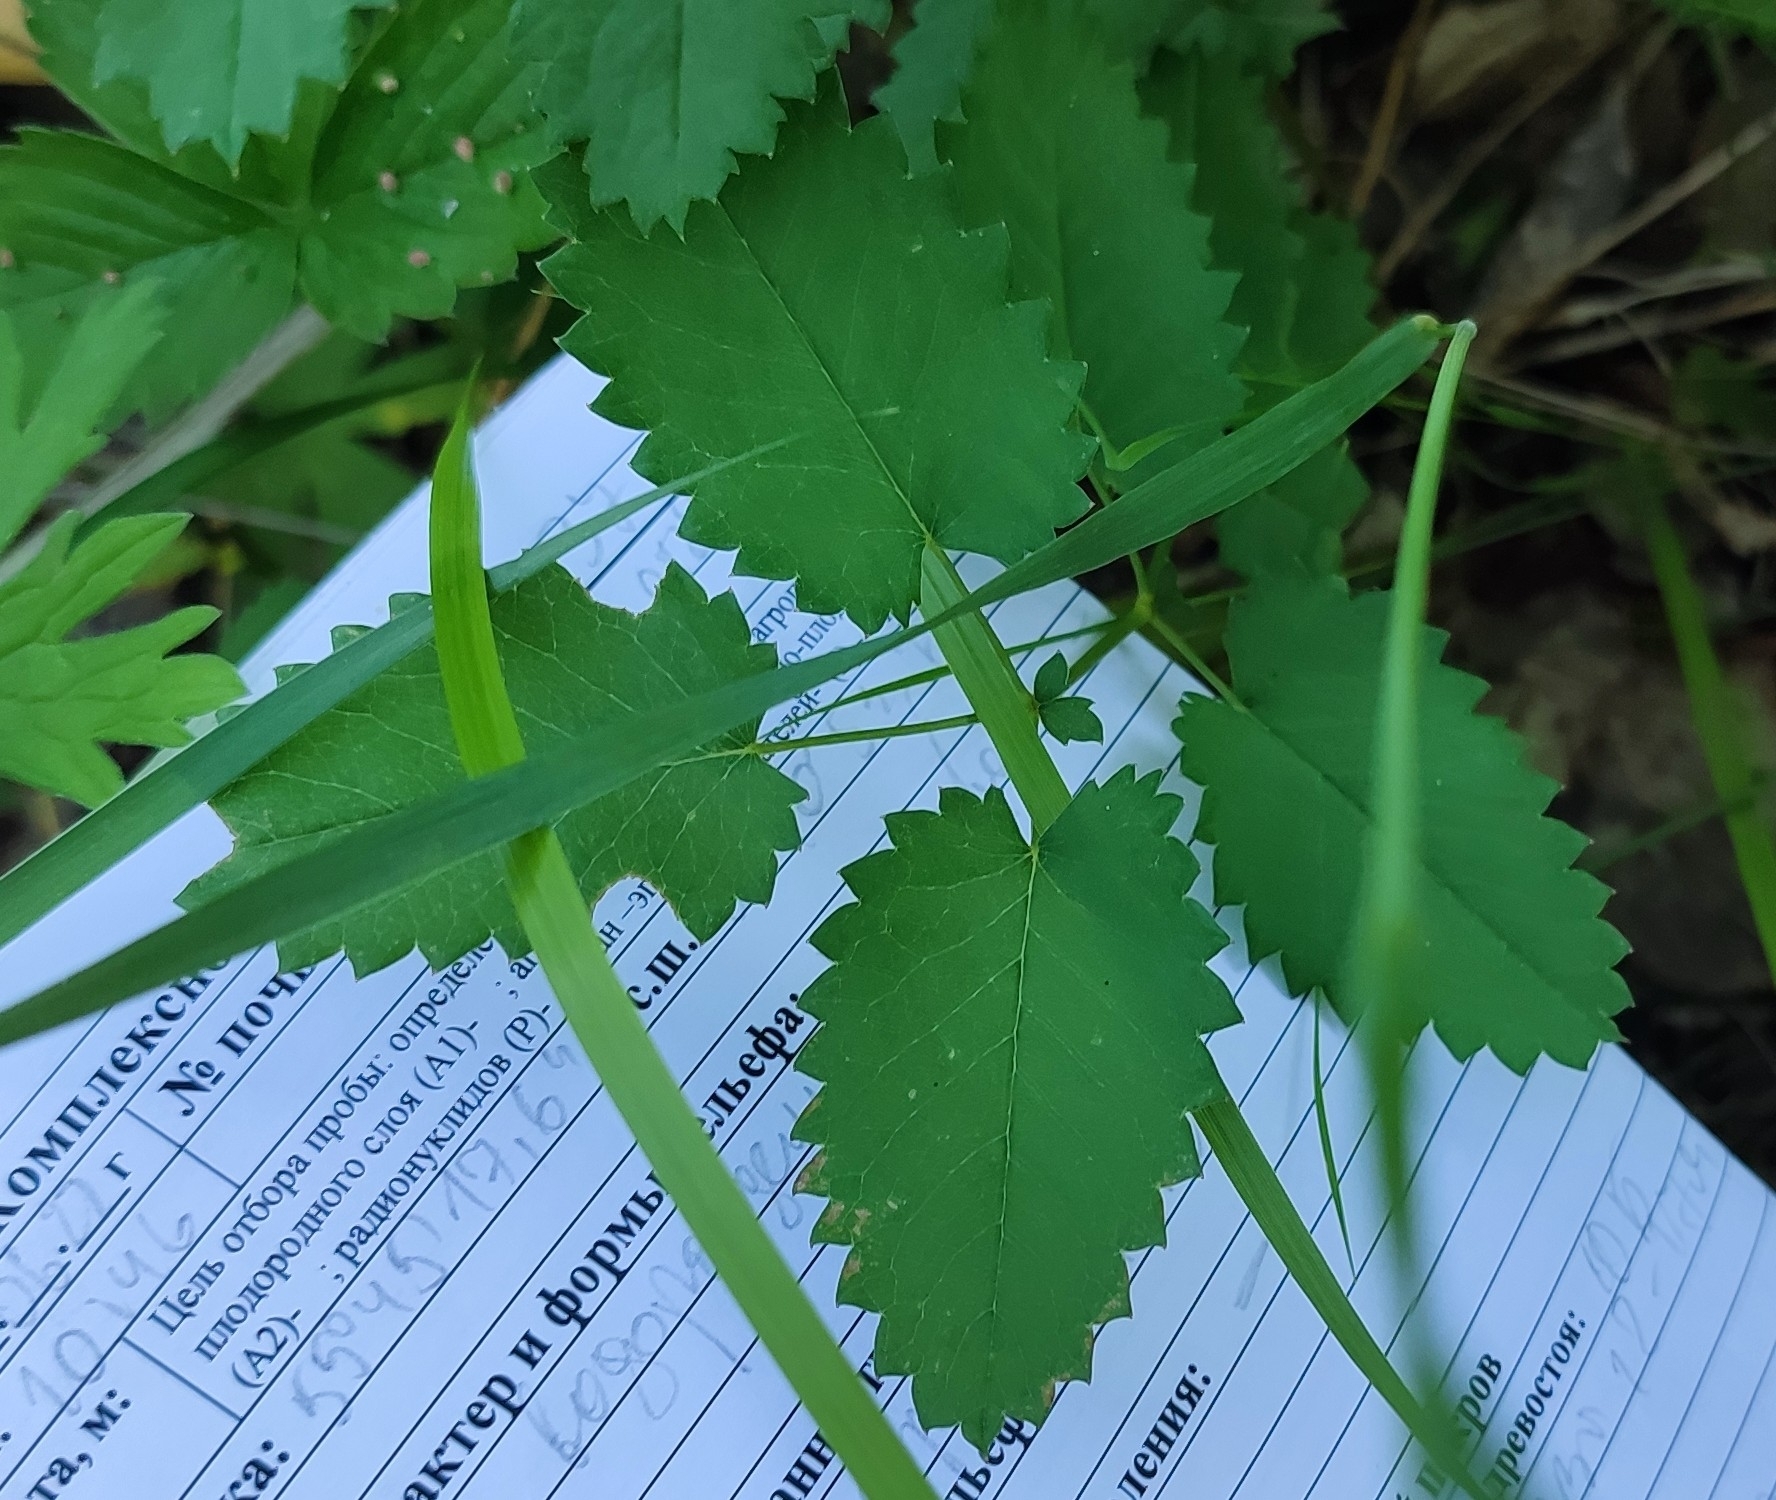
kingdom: Plantae
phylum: Tracheophyta
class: Magnoliopsida
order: Rosales
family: Rosaceae
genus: Sanguisorba
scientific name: Sanguisorba officinalis
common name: Great burnet
